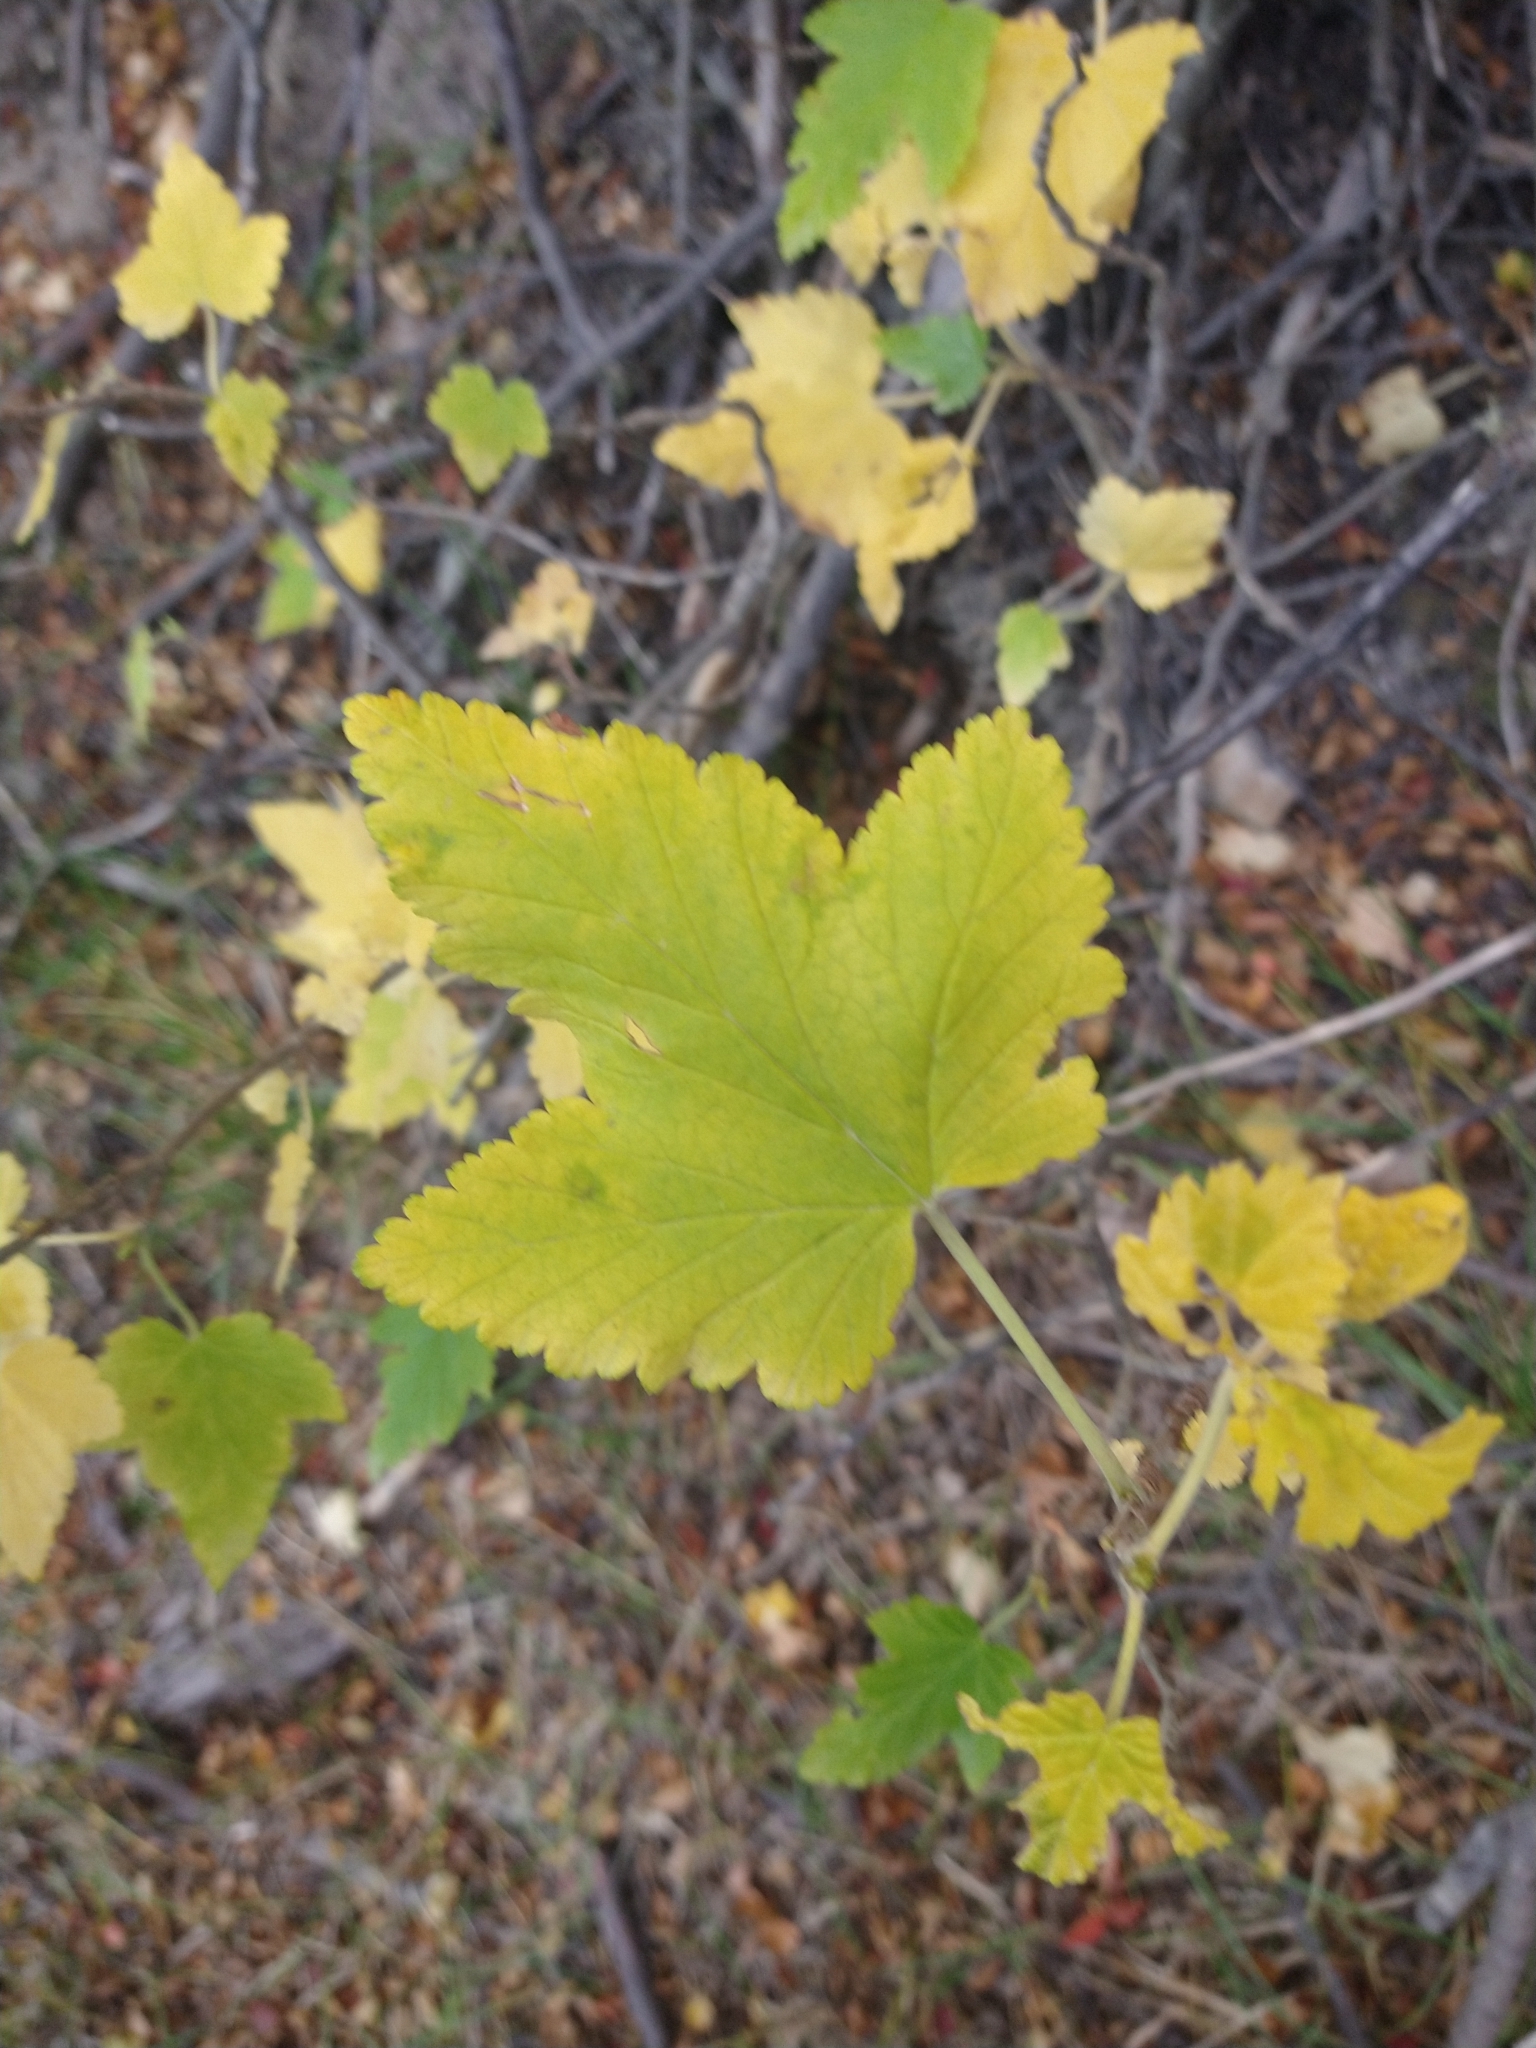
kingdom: Plantae
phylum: Tracheophyta
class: Magnoliopsida
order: Saxifragales
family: Grossulariaceae
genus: Ribes
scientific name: Ribes magellanicum
